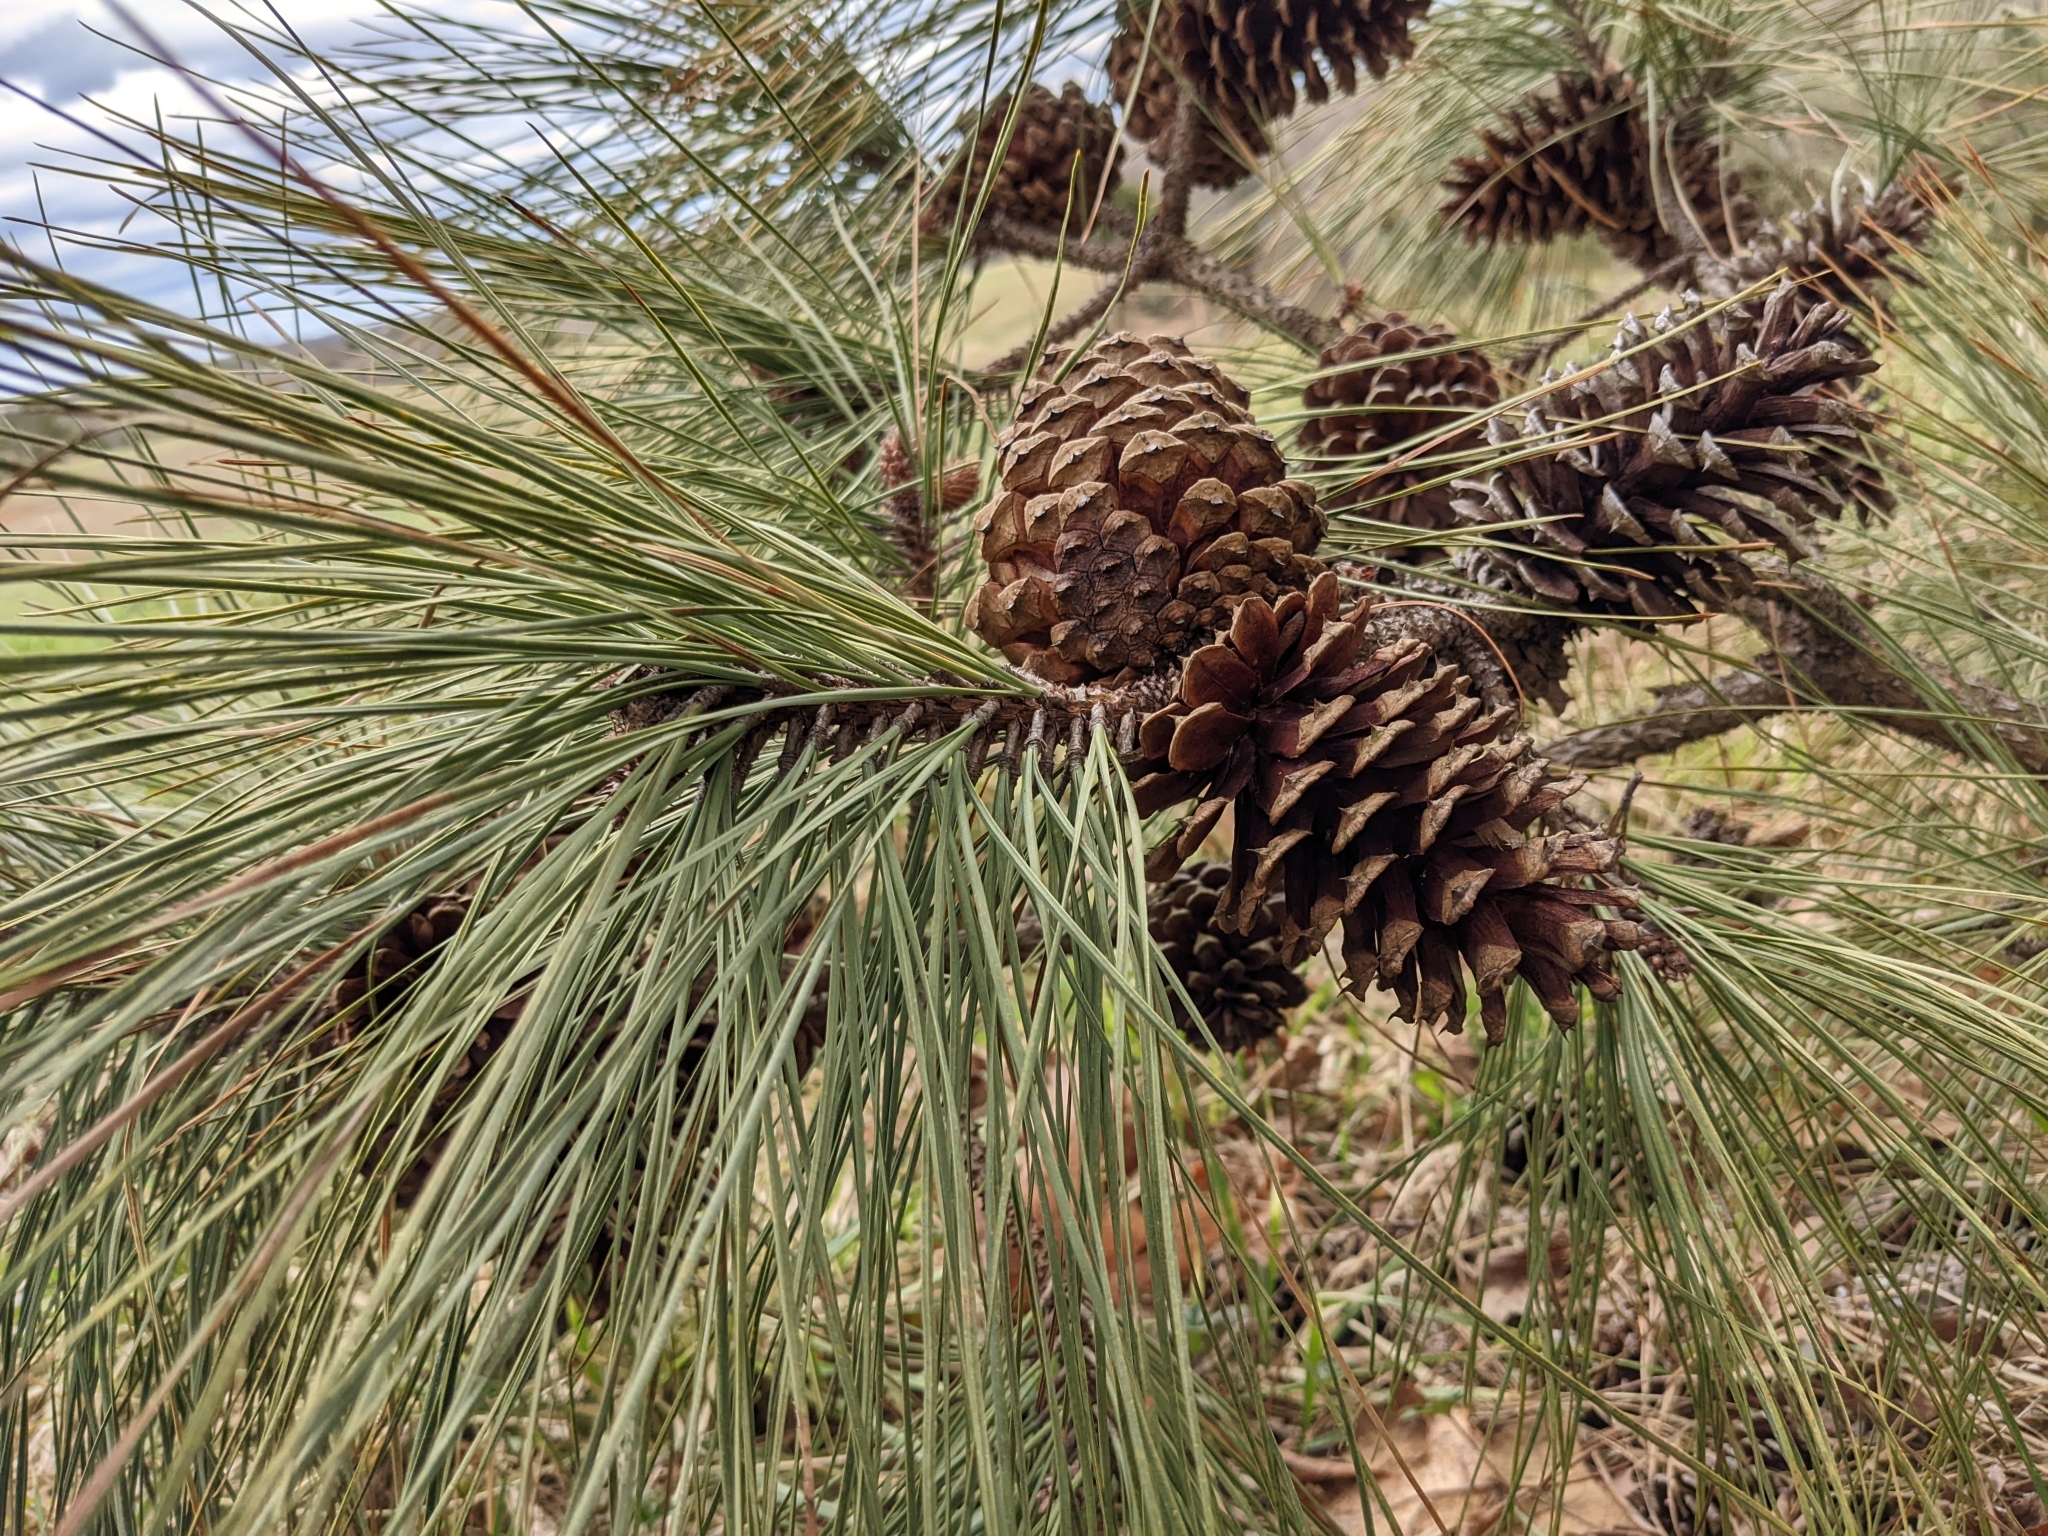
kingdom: Plantae
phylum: Tracheophyta
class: Pinopsida
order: Pinales
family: Pinaceae
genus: Pinus
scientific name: Pinus taeda
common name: Loblolly pine
